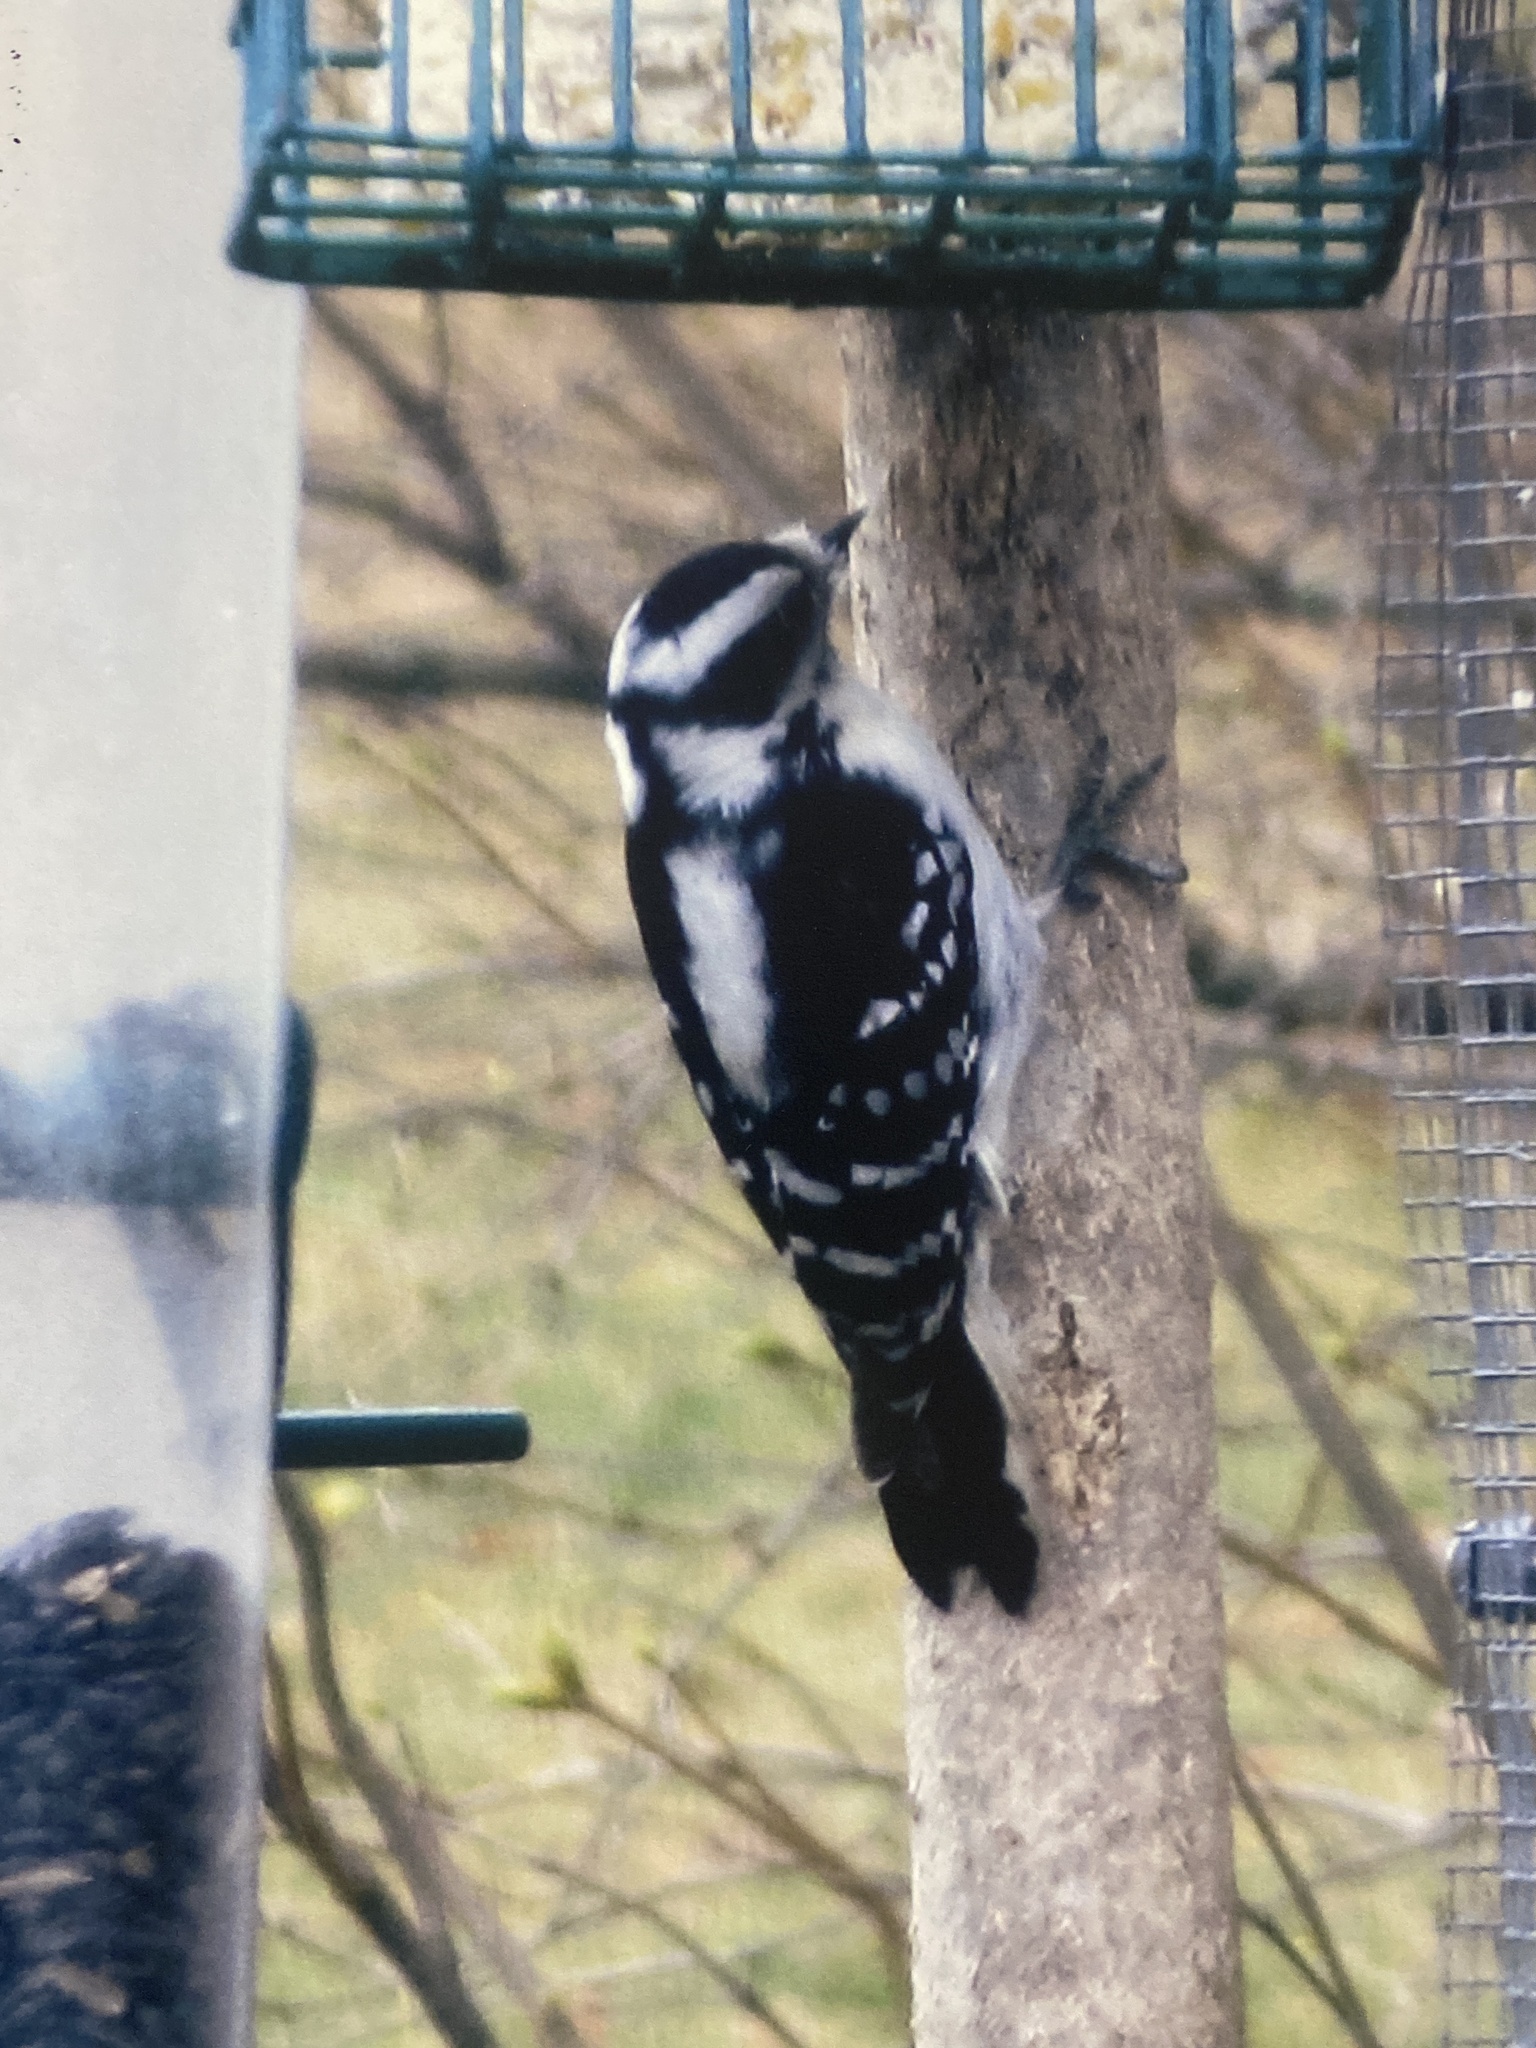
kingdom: Animalia
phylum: Chordata
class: Aves
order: Piciformes
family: Picidae
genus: Dryobates
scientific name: Dryobates pubescens
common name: Downy woodpecker
